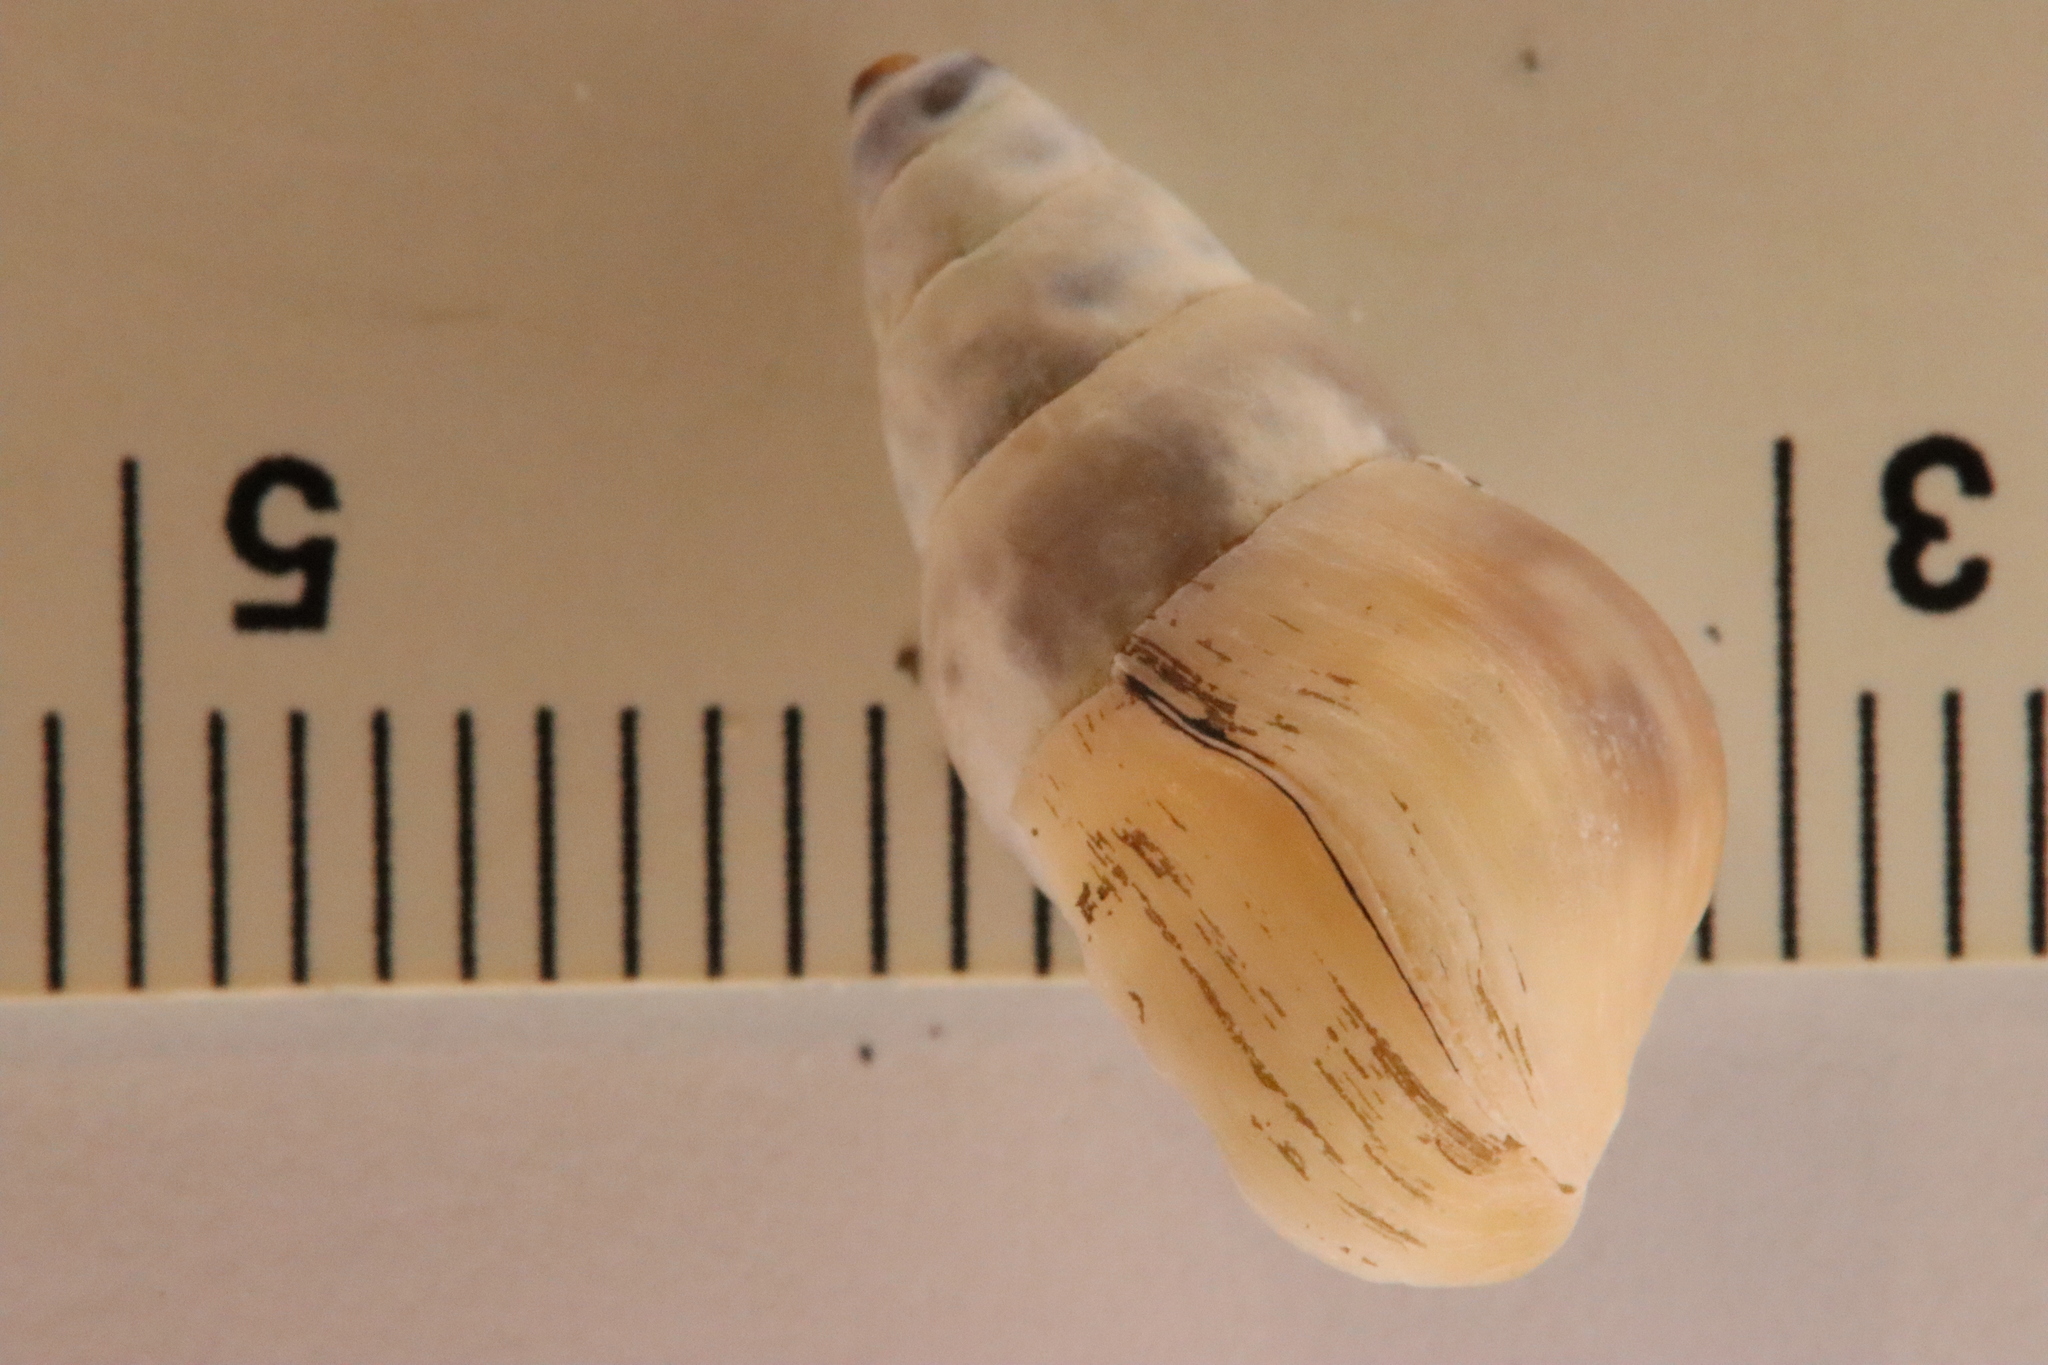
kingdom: Animalia
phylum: Mollusca
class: Gastropoda
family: Pleuroceridae
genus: Elimia
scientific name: Elimia livescens
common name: Liver elimia
